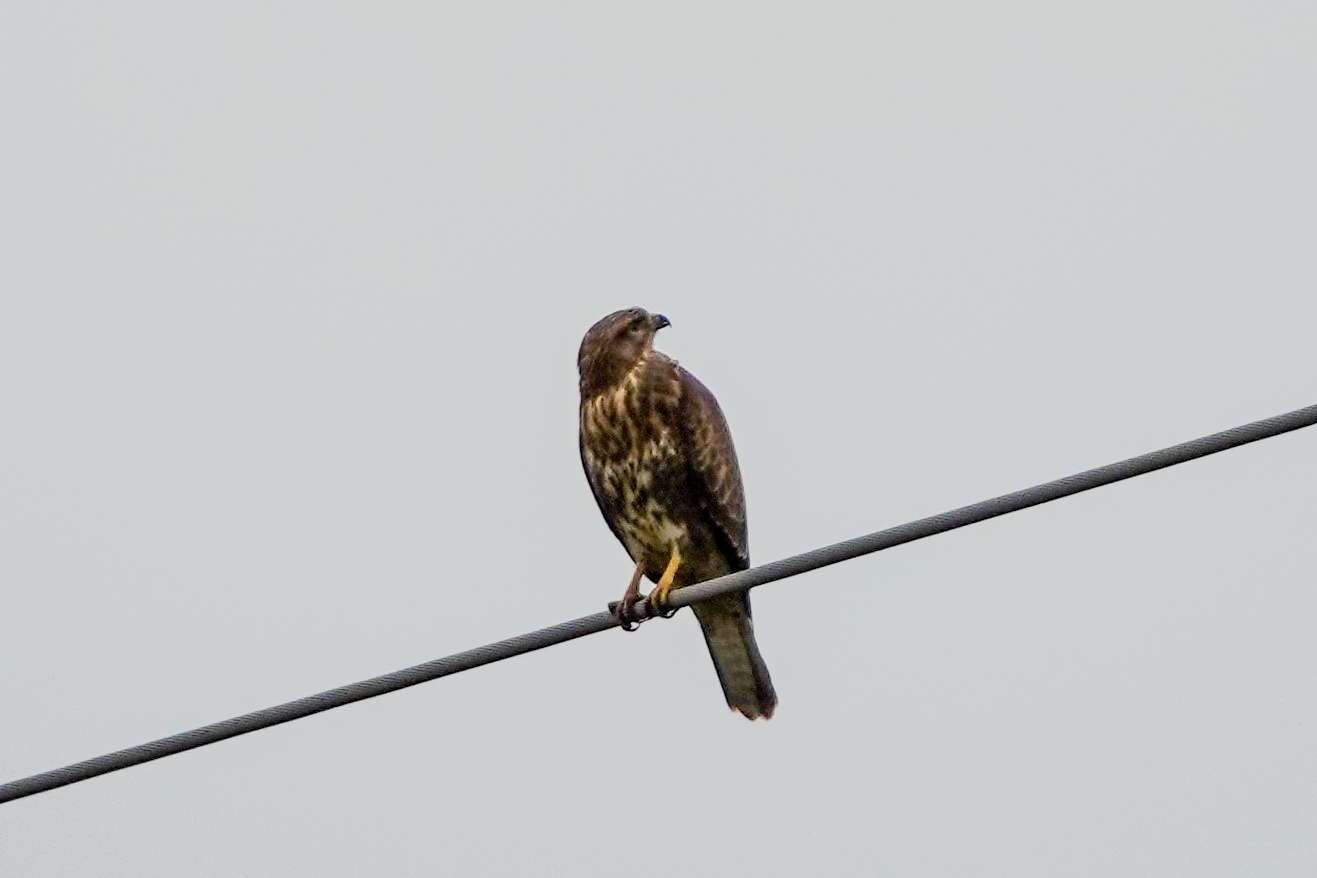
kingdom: Animalia
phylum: Chordata
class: Aves
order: Accipitriformes
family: Accipitridae
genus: Buteo
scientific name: Buteo buteo
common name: Common buzzard
